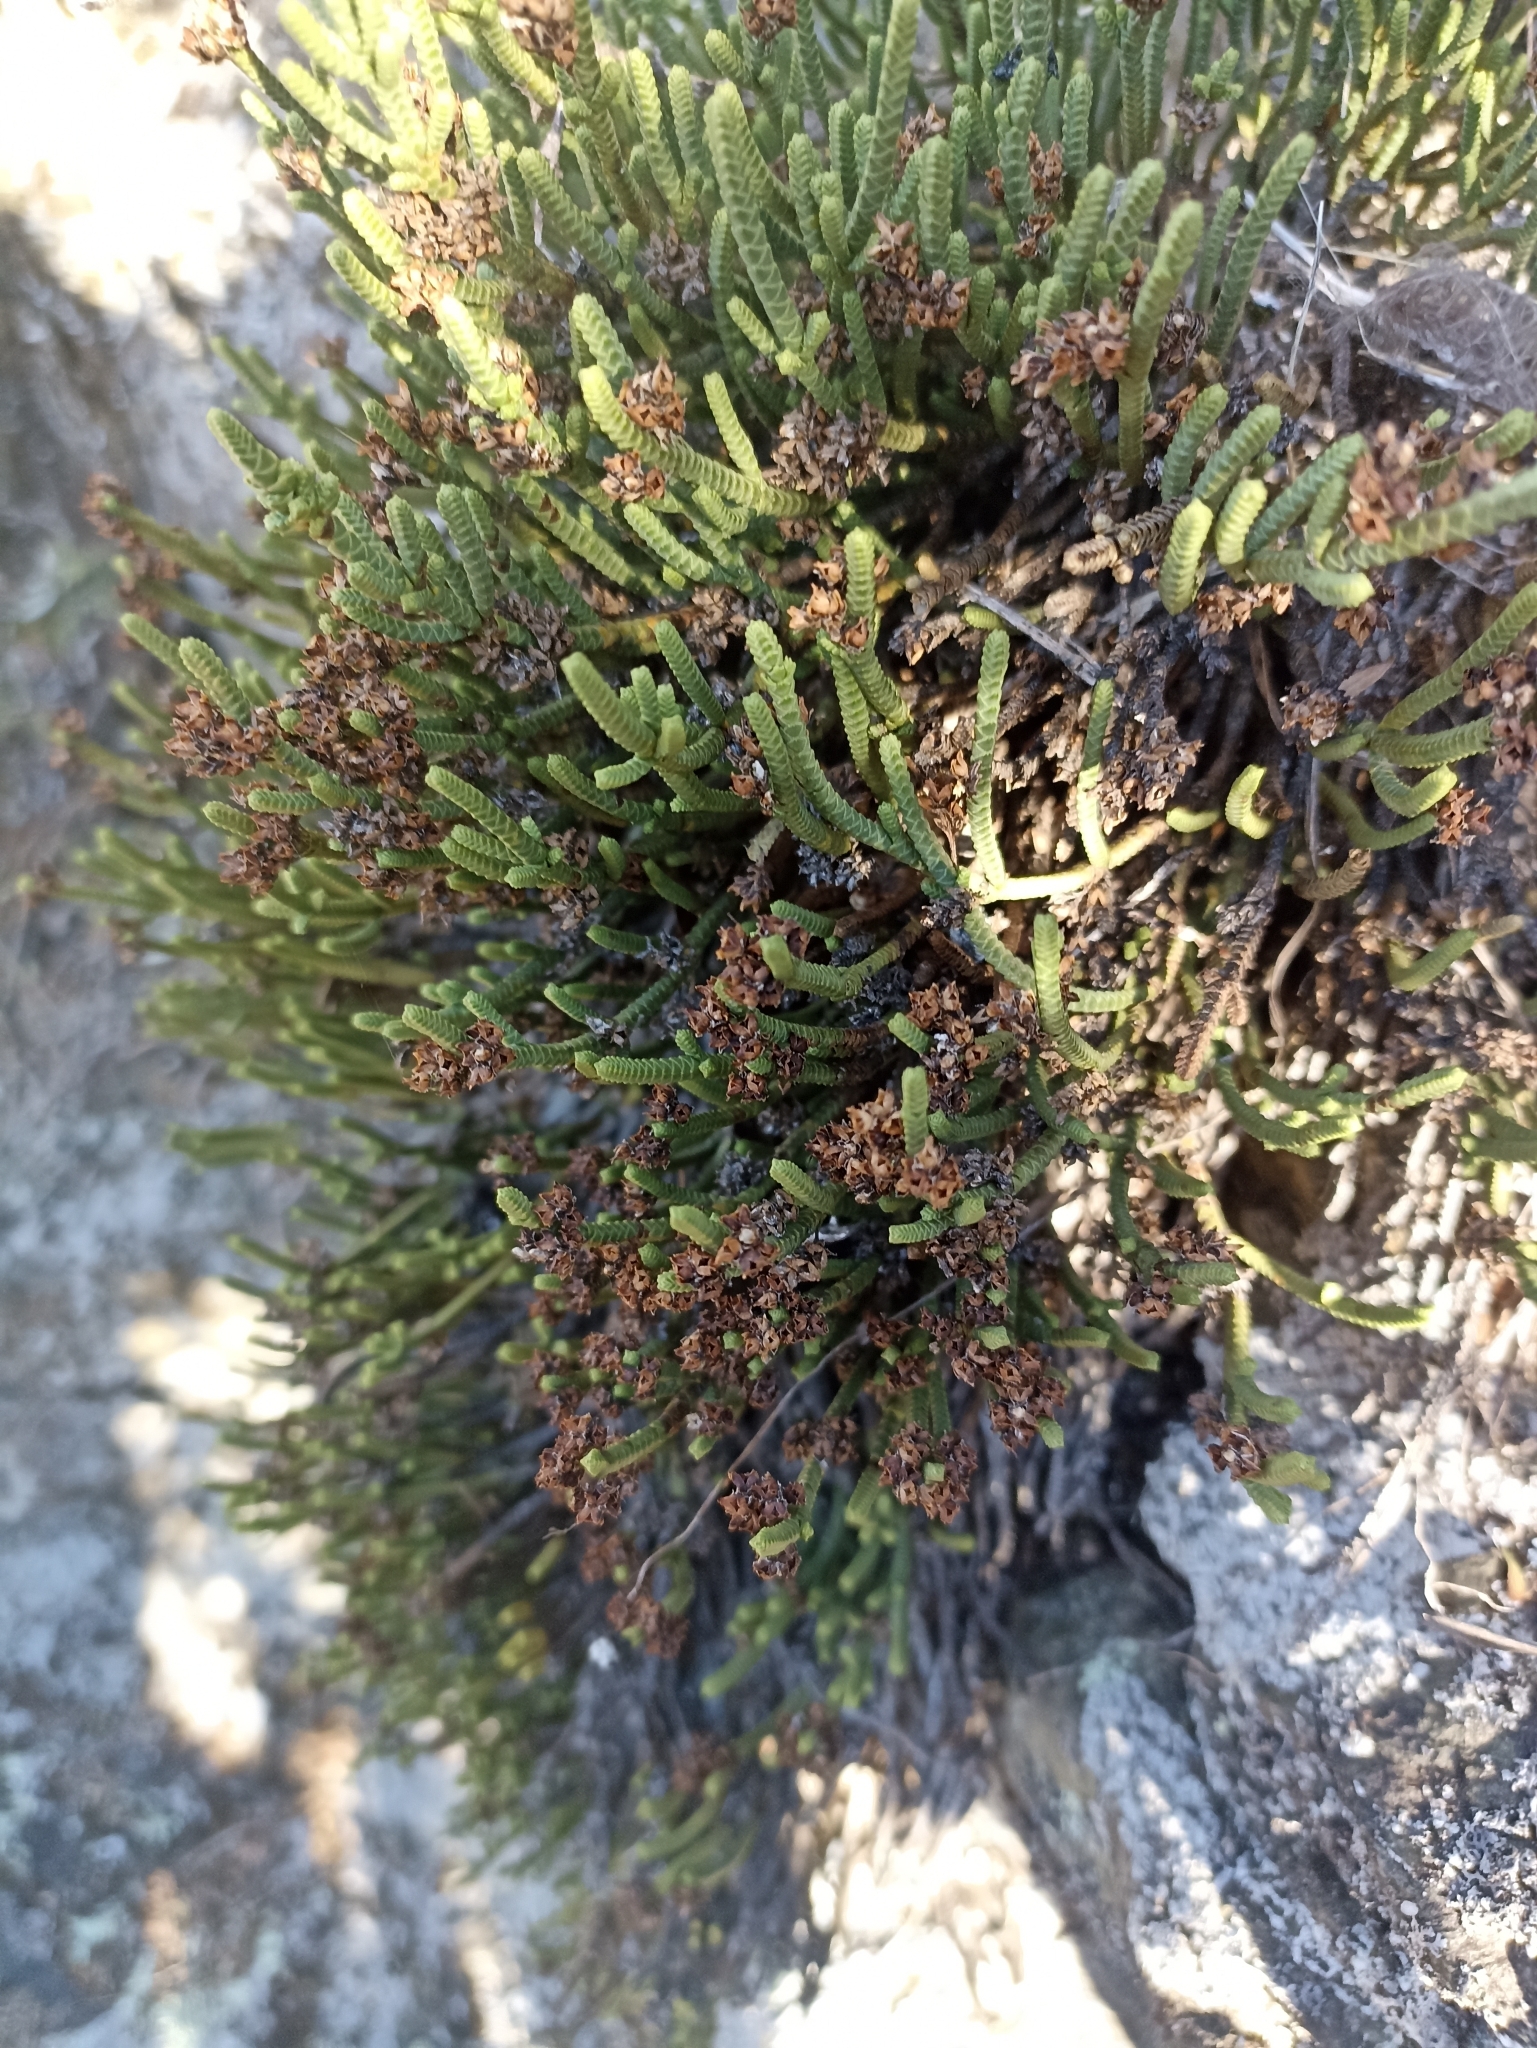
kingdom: Plantae
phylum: Tracheophyta
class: Magnoliopsida
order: Lamiales
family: Plantaginaceae
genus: Veronica
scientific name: Veronica quadrifaria
